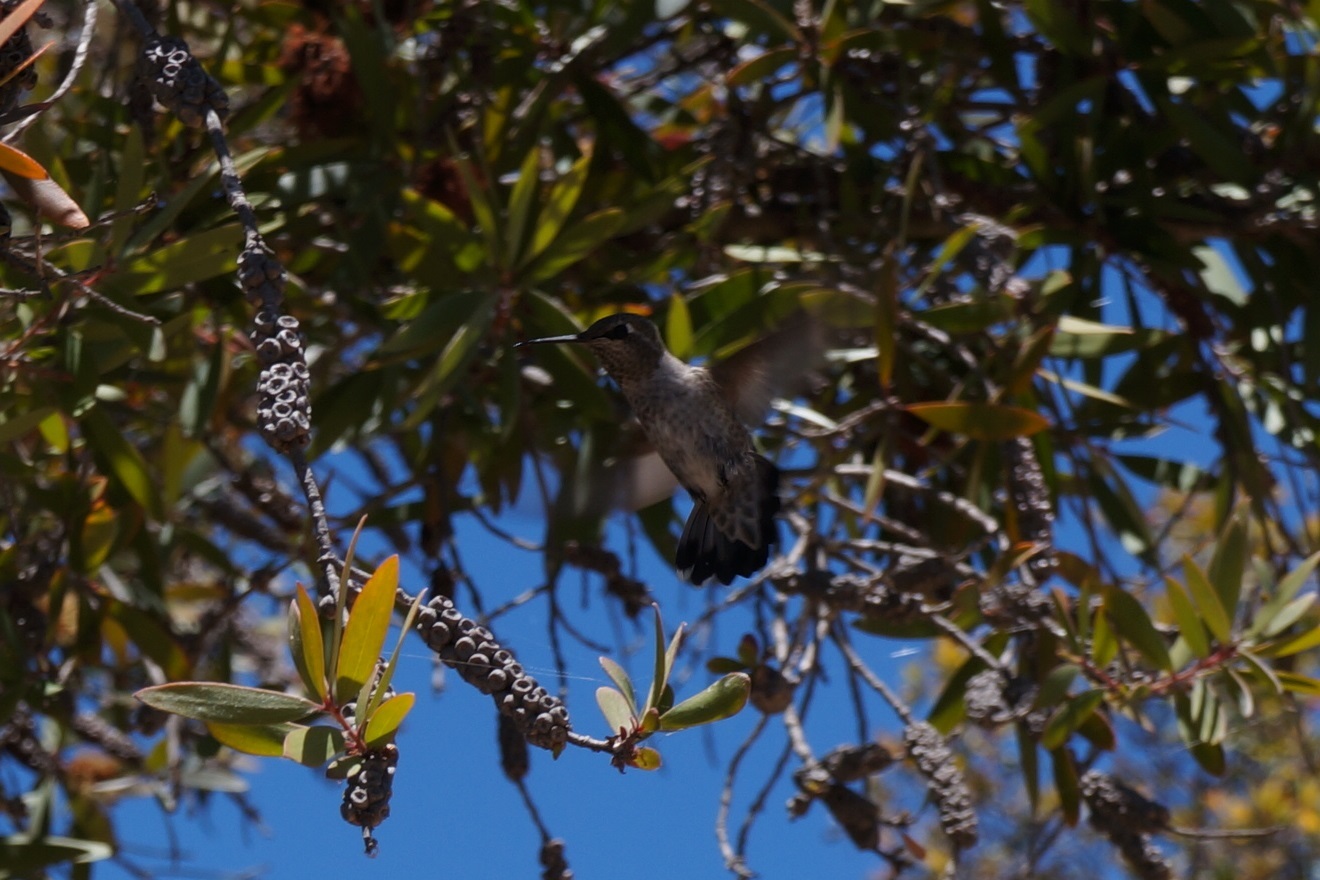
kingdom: Animalia
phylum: Chordata
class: Aves
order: Apodiformes
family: Trochilidae
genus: Calypte
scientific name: Calypte anna
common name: Anna's hummingbird
